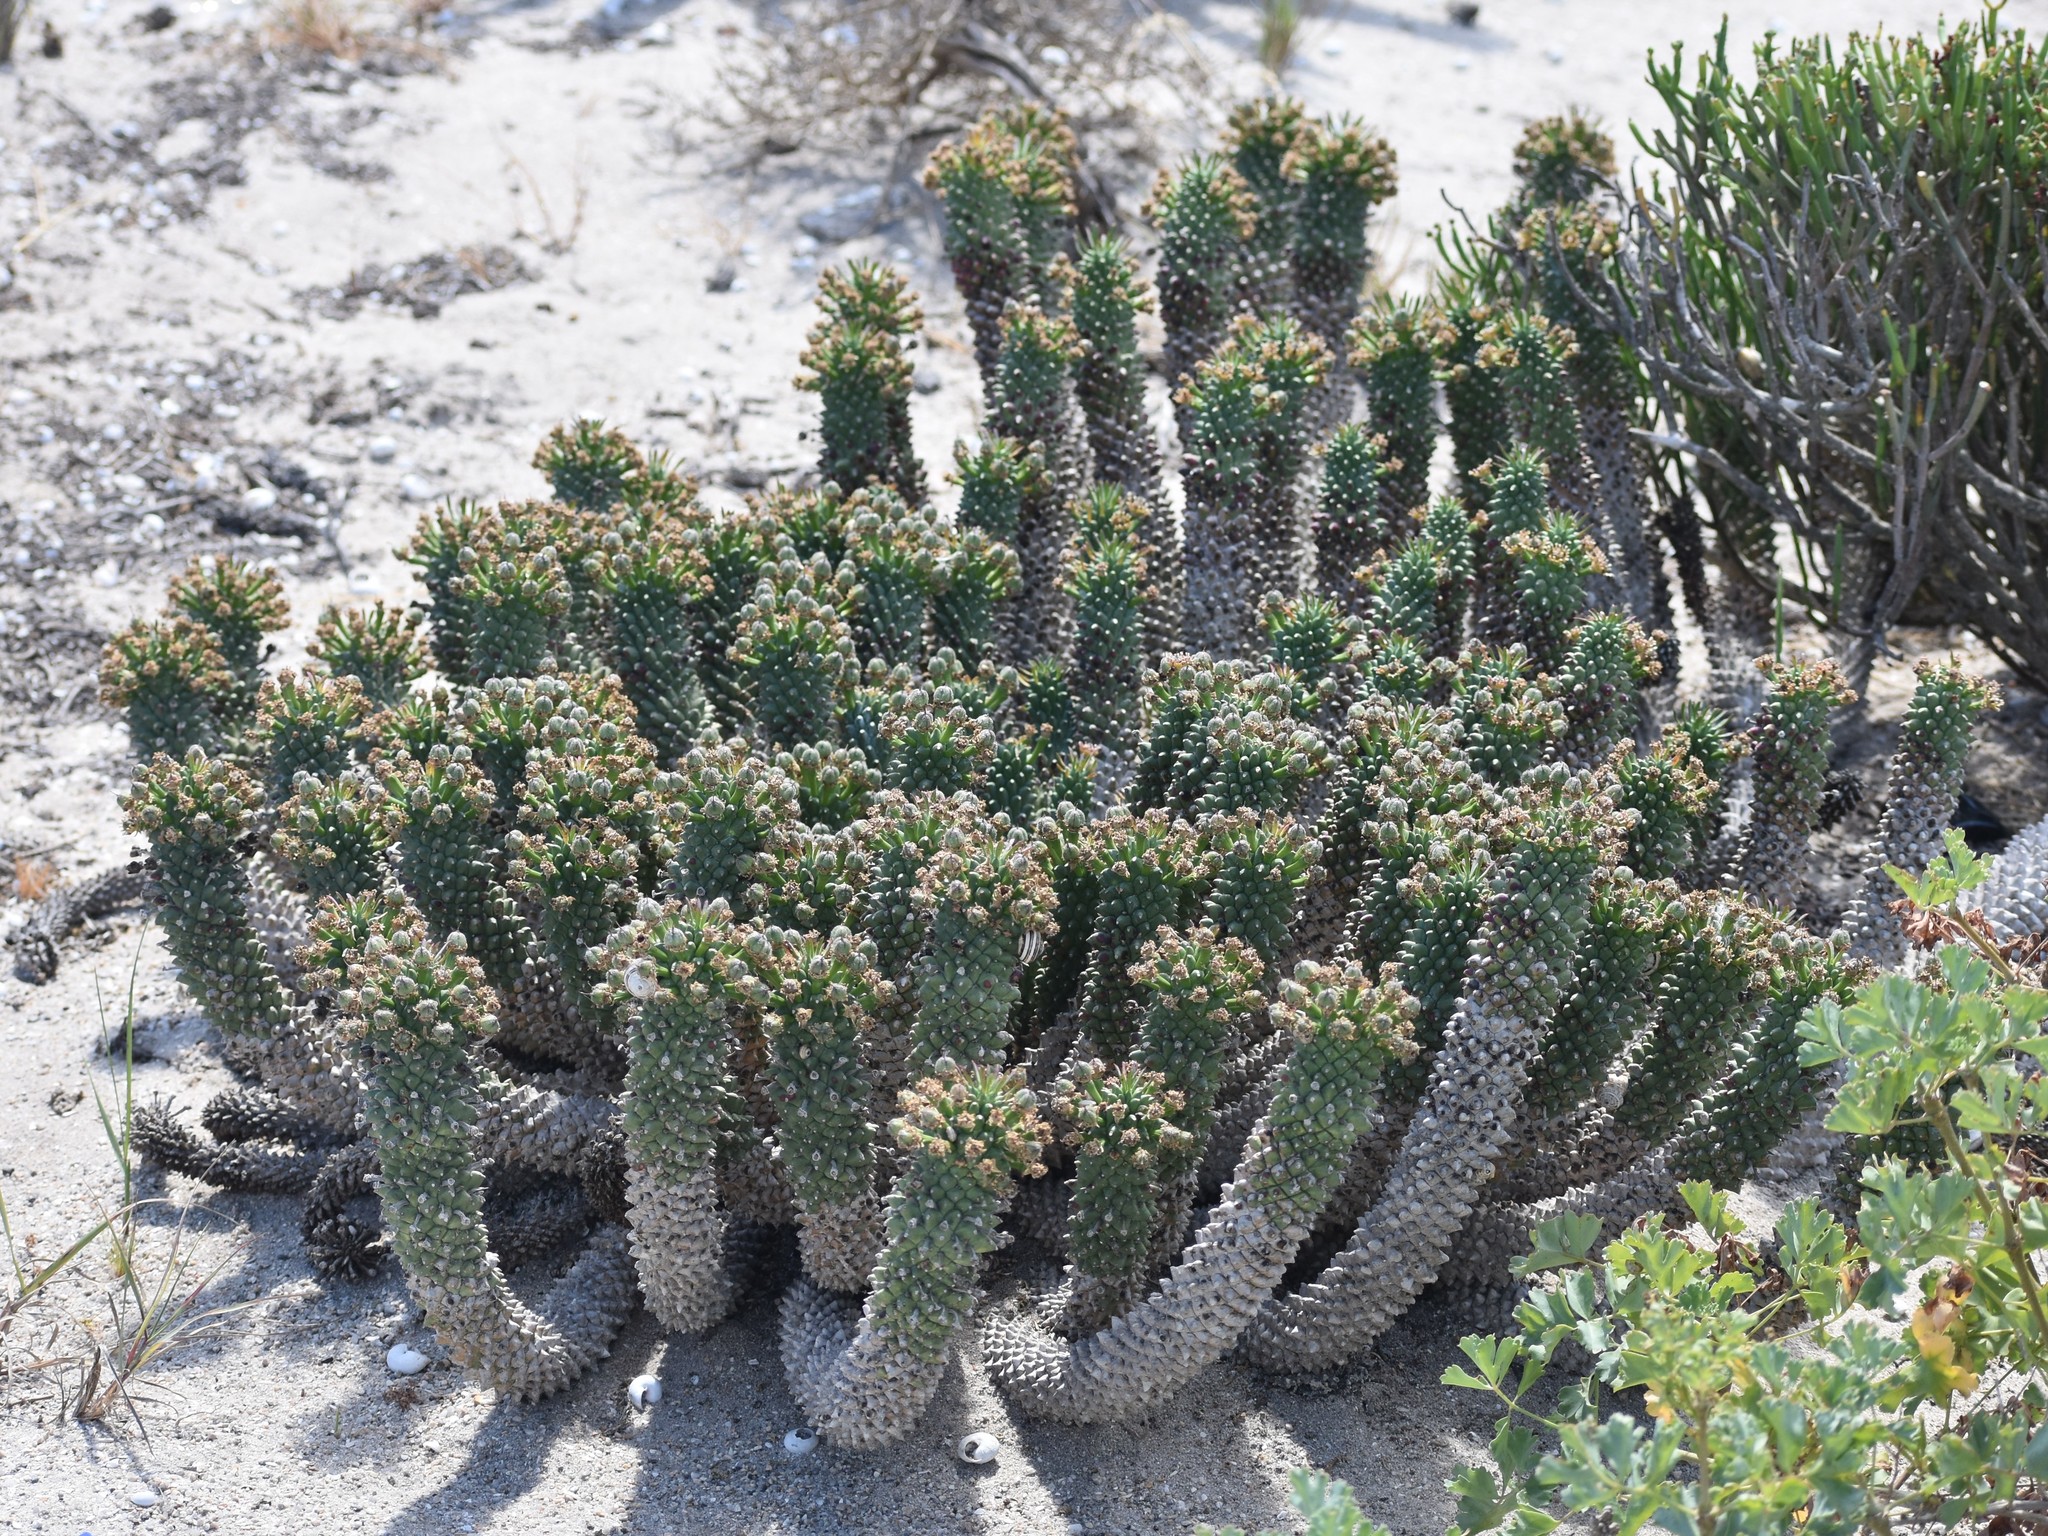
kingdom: Plantae
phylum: Tracheophyta
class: Magnoliopsida
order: Malpighiales
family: Euphorbiaceae
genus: Euphorbia
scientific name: Euphorbia caput-medusae
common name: Medusa's-head
